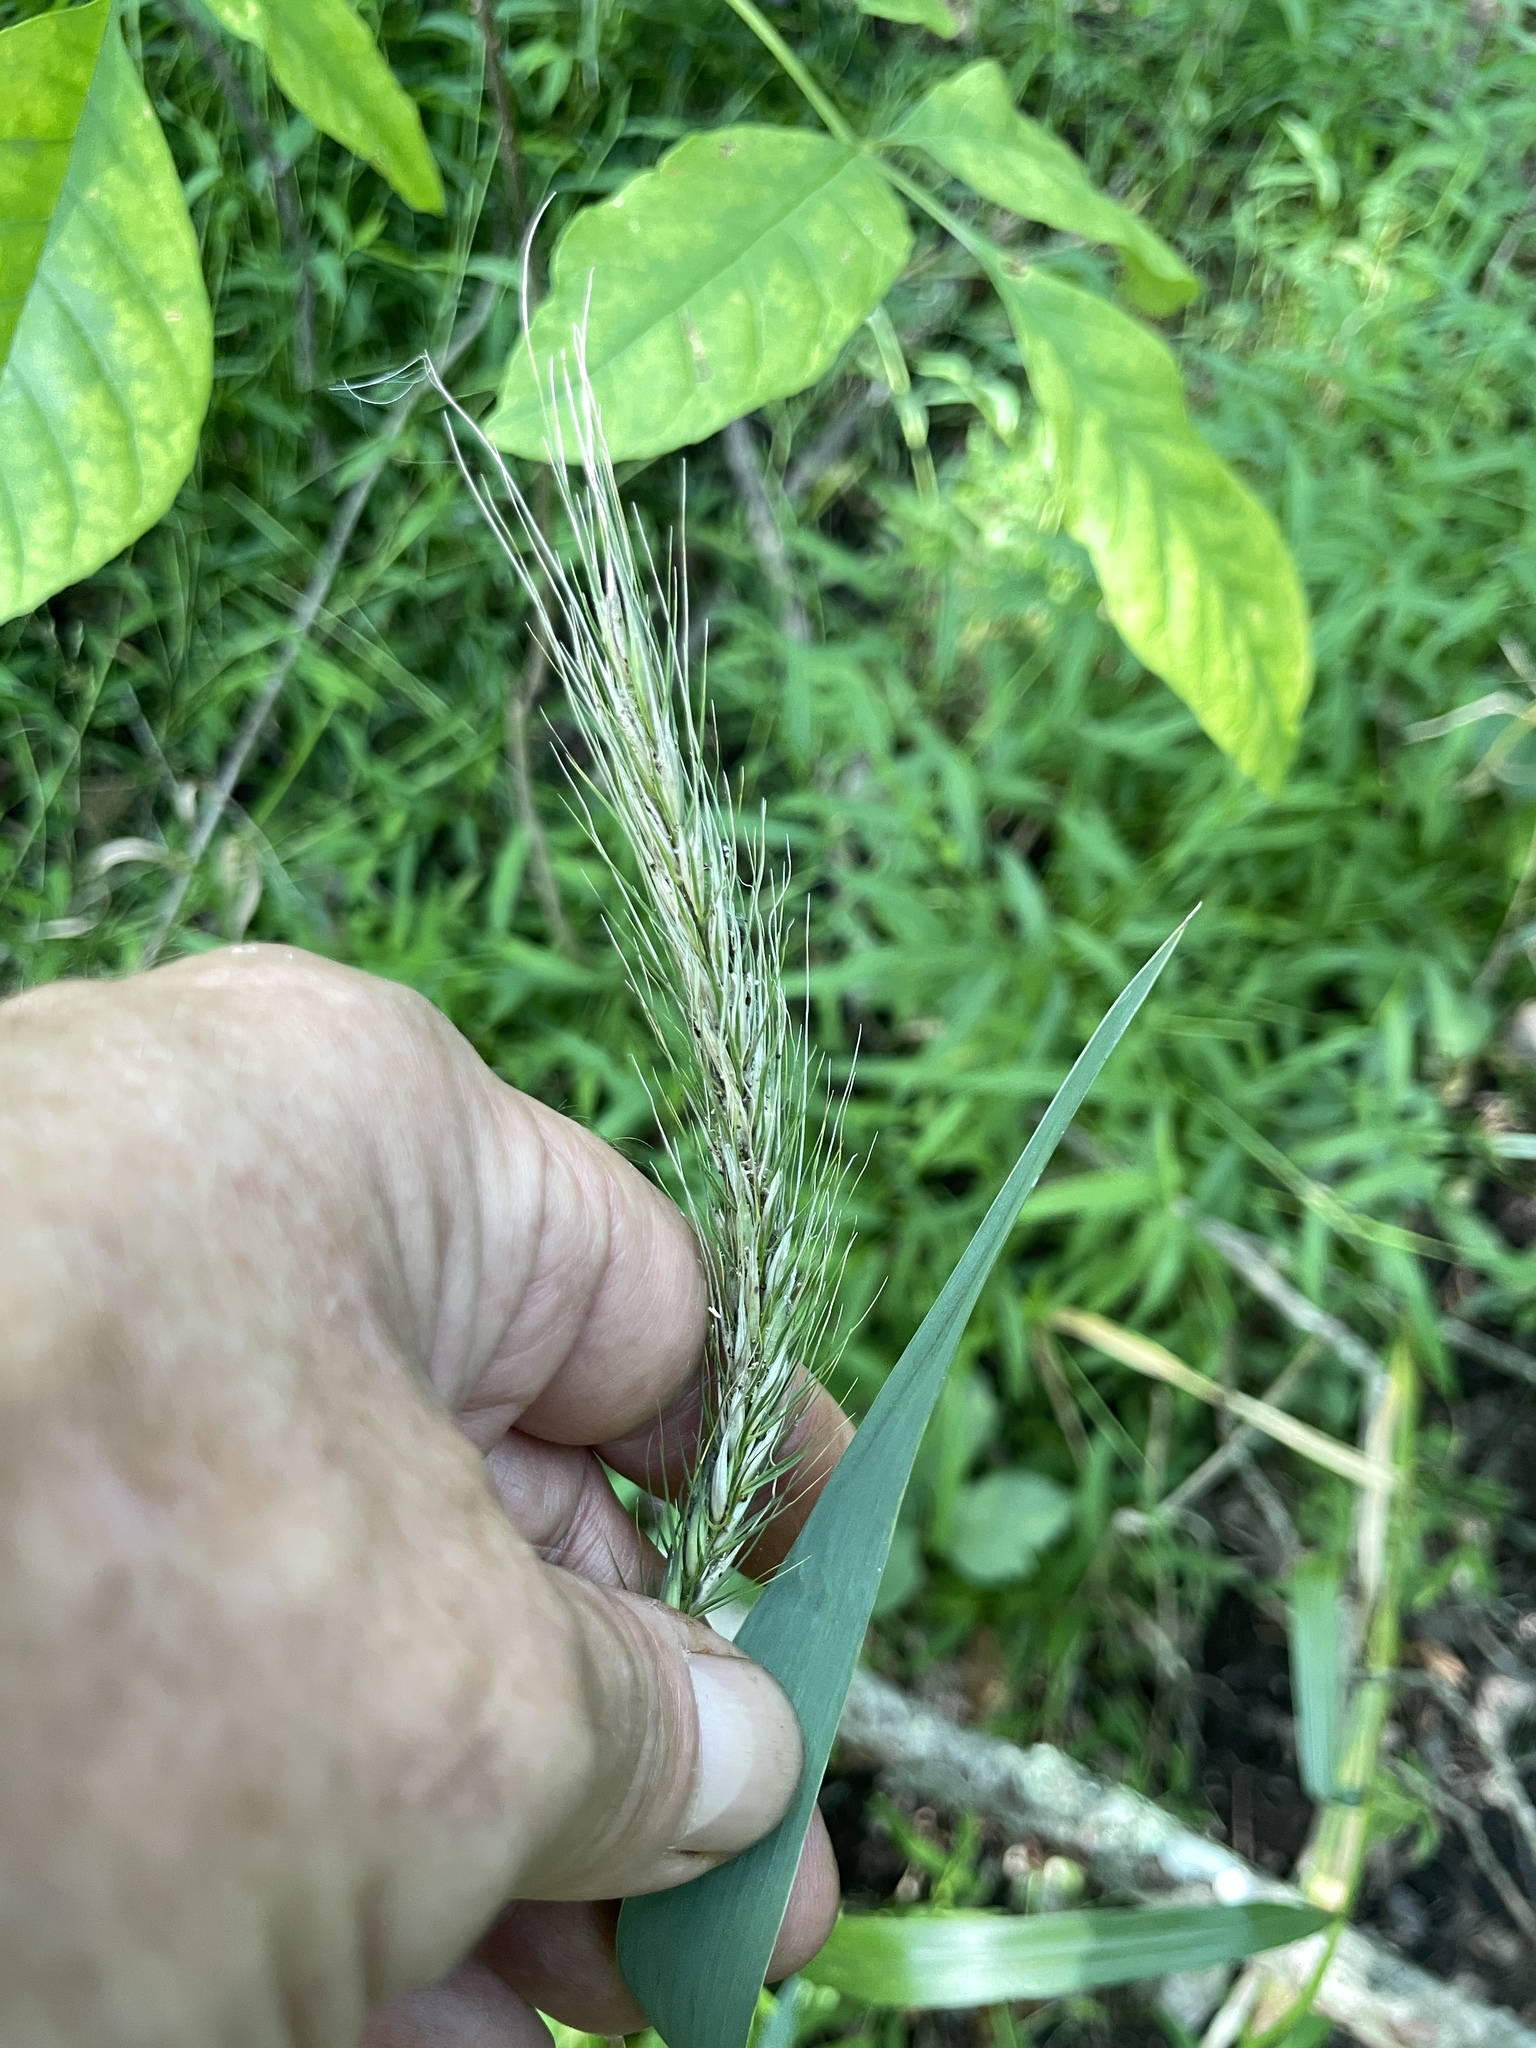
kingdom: Plantae
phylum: Tracheophyta
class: Liliopsida
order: Poales
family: Poaceae
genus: Elymus
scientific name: Elymus riparius
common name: Eastern riverbank wild rye
